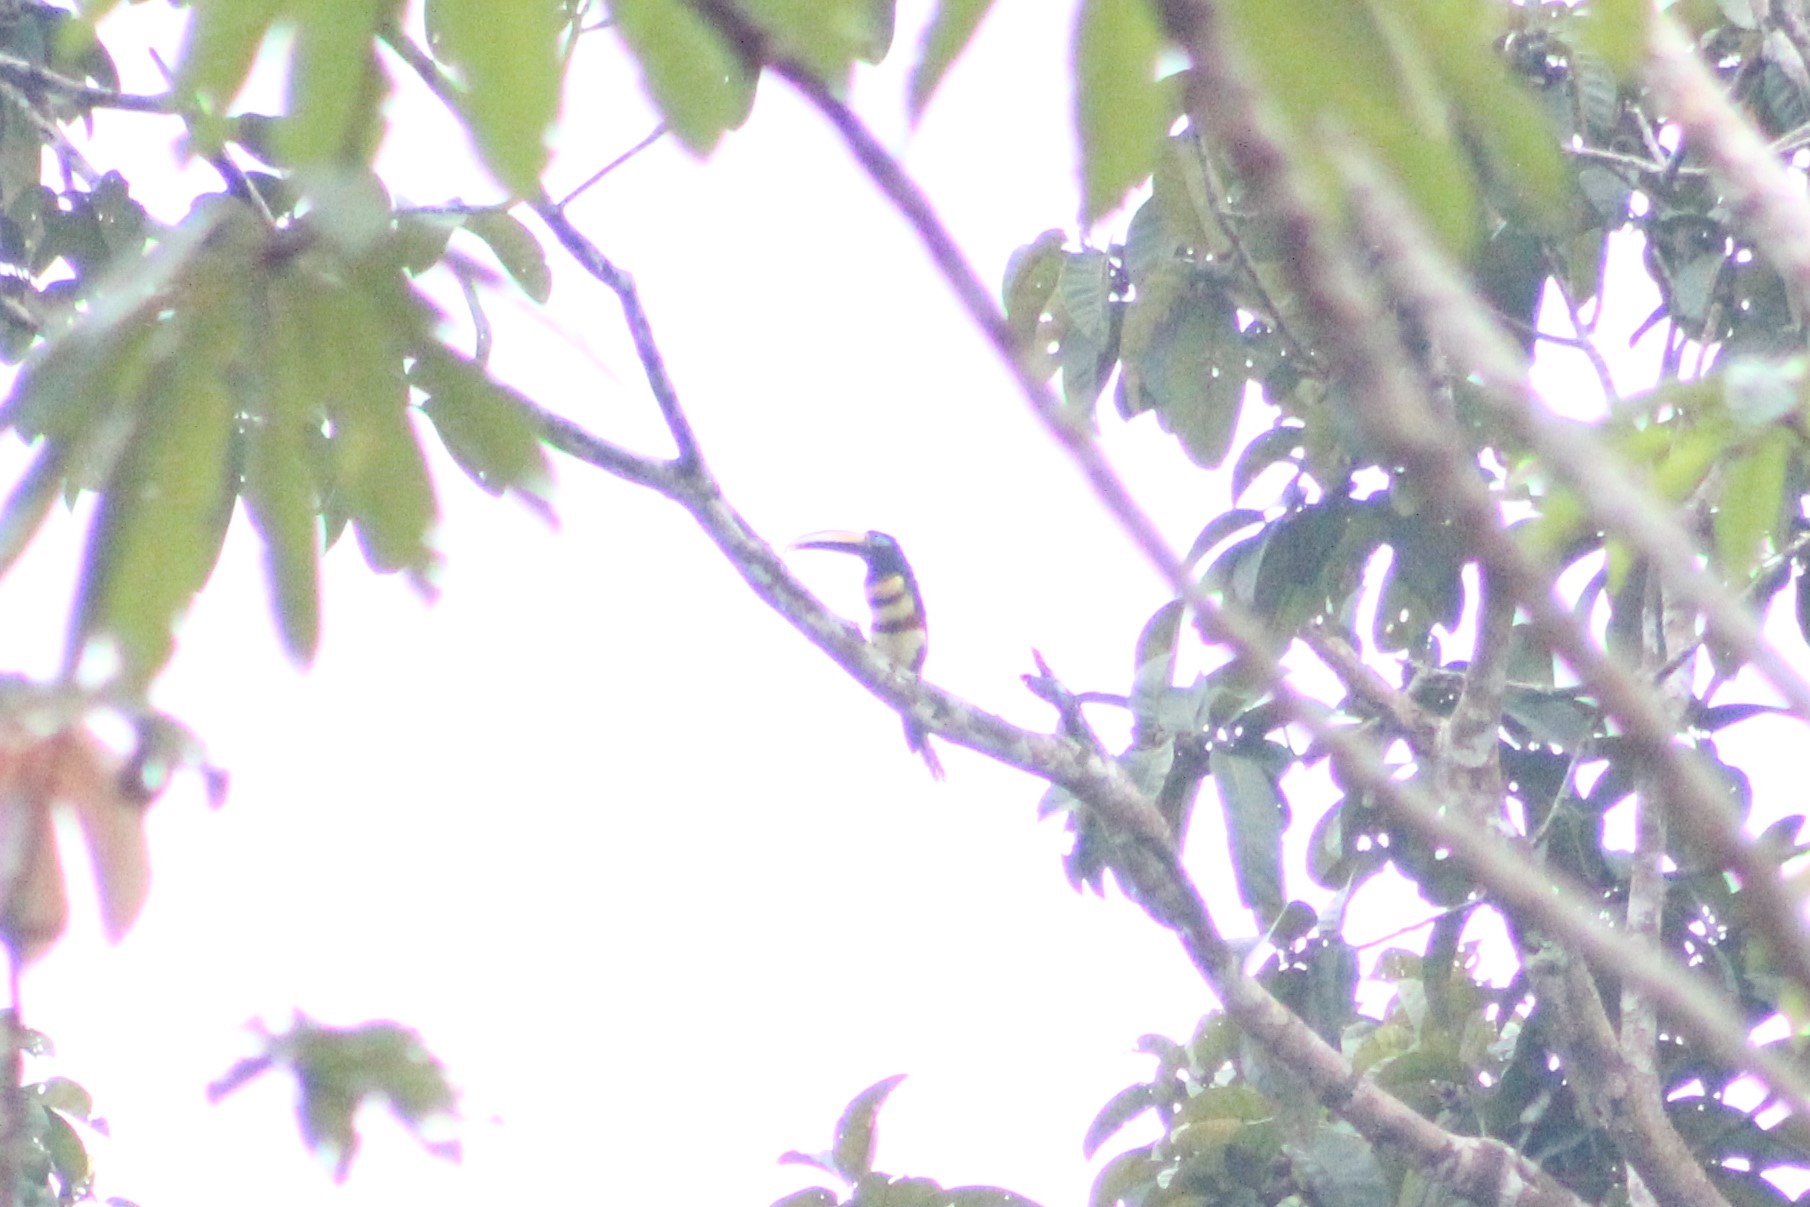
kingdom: Animalia
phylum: Chordata
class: Aves
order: Piciformes
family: Ramphastidae
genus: Pteroglossus
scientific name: Pteroglossus pluricinctus
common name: Many-banded aracari
